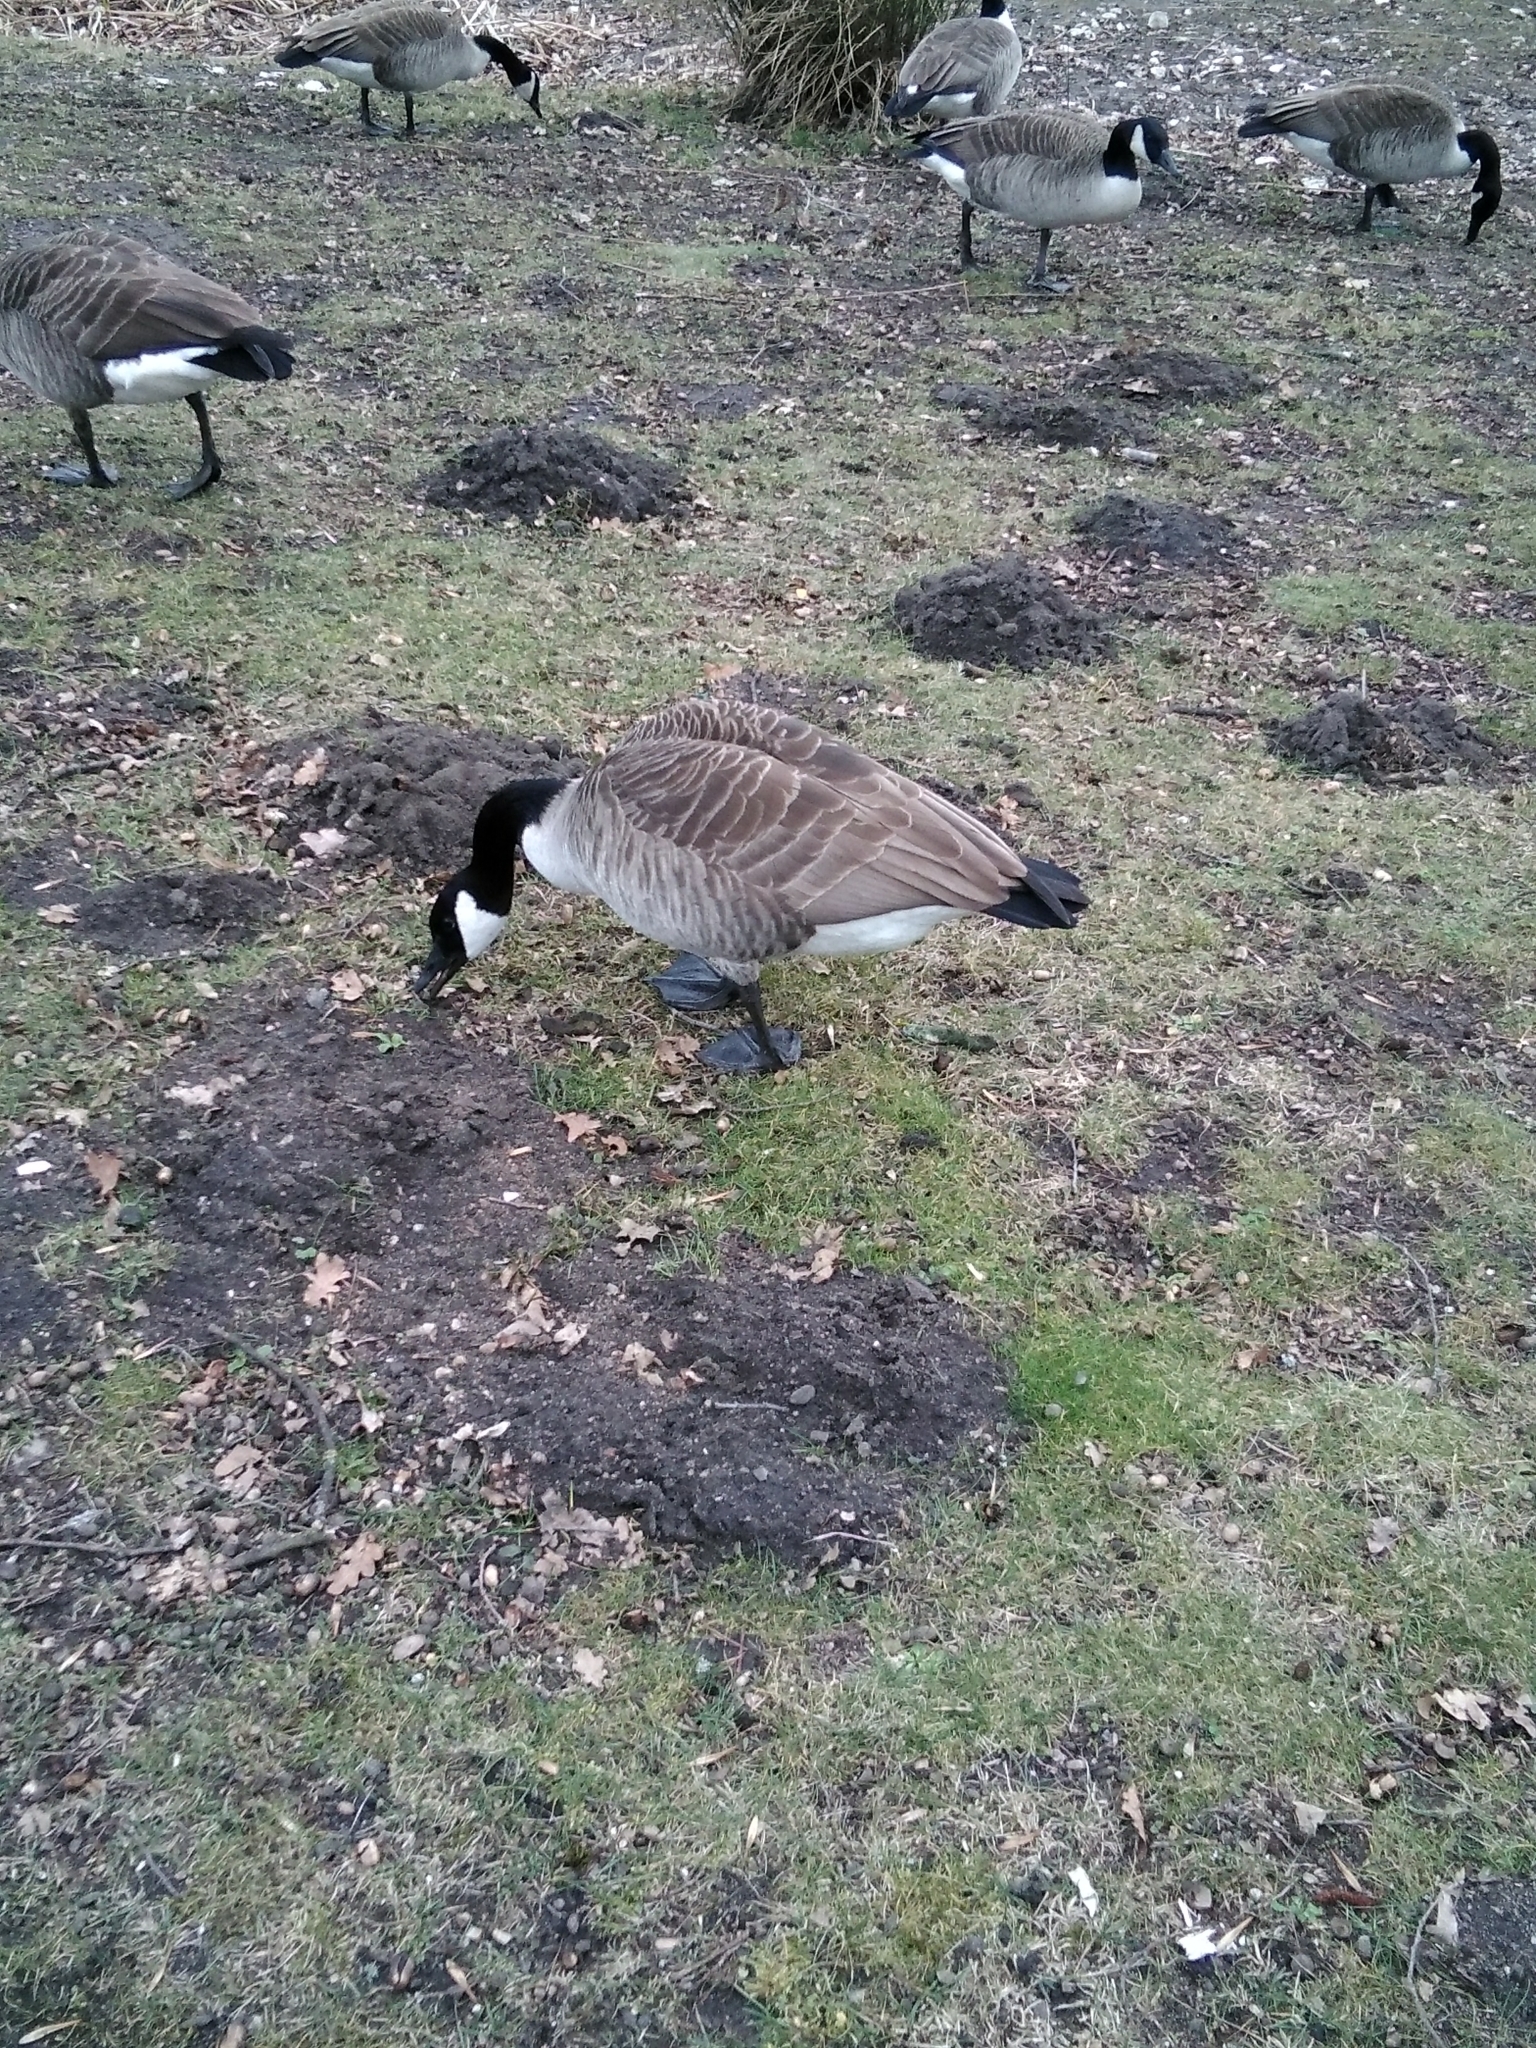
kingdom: Animalia
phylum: Chordata
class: Aves
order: Anseriformes
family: Anatidae
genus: Branta
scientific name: Branta canadensis
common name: Canada goose
